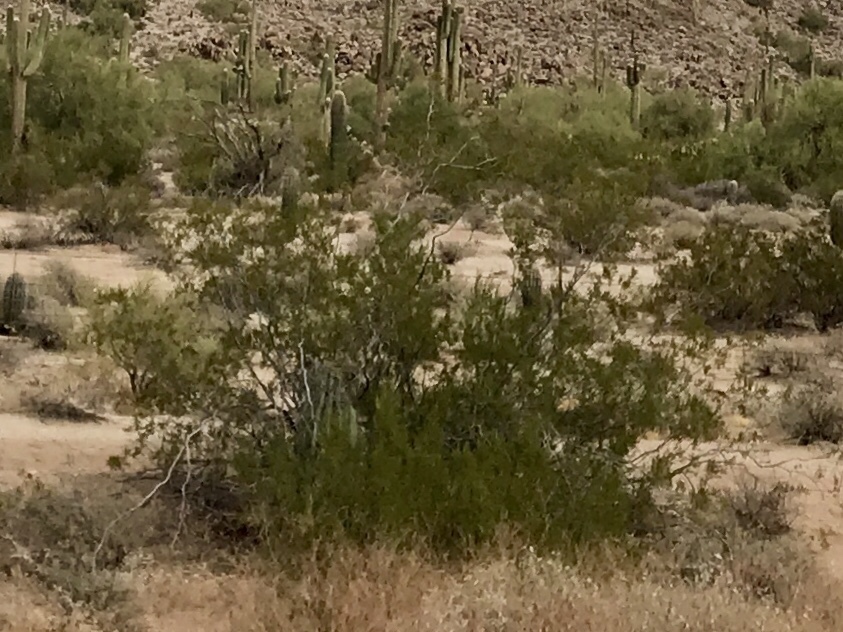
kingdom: Plantae
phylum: Tracheophyta
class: Magnoliopsida
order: Zygophyllales
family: Zygophyllaceae
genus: Larrea
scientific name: Larrea tridentata
